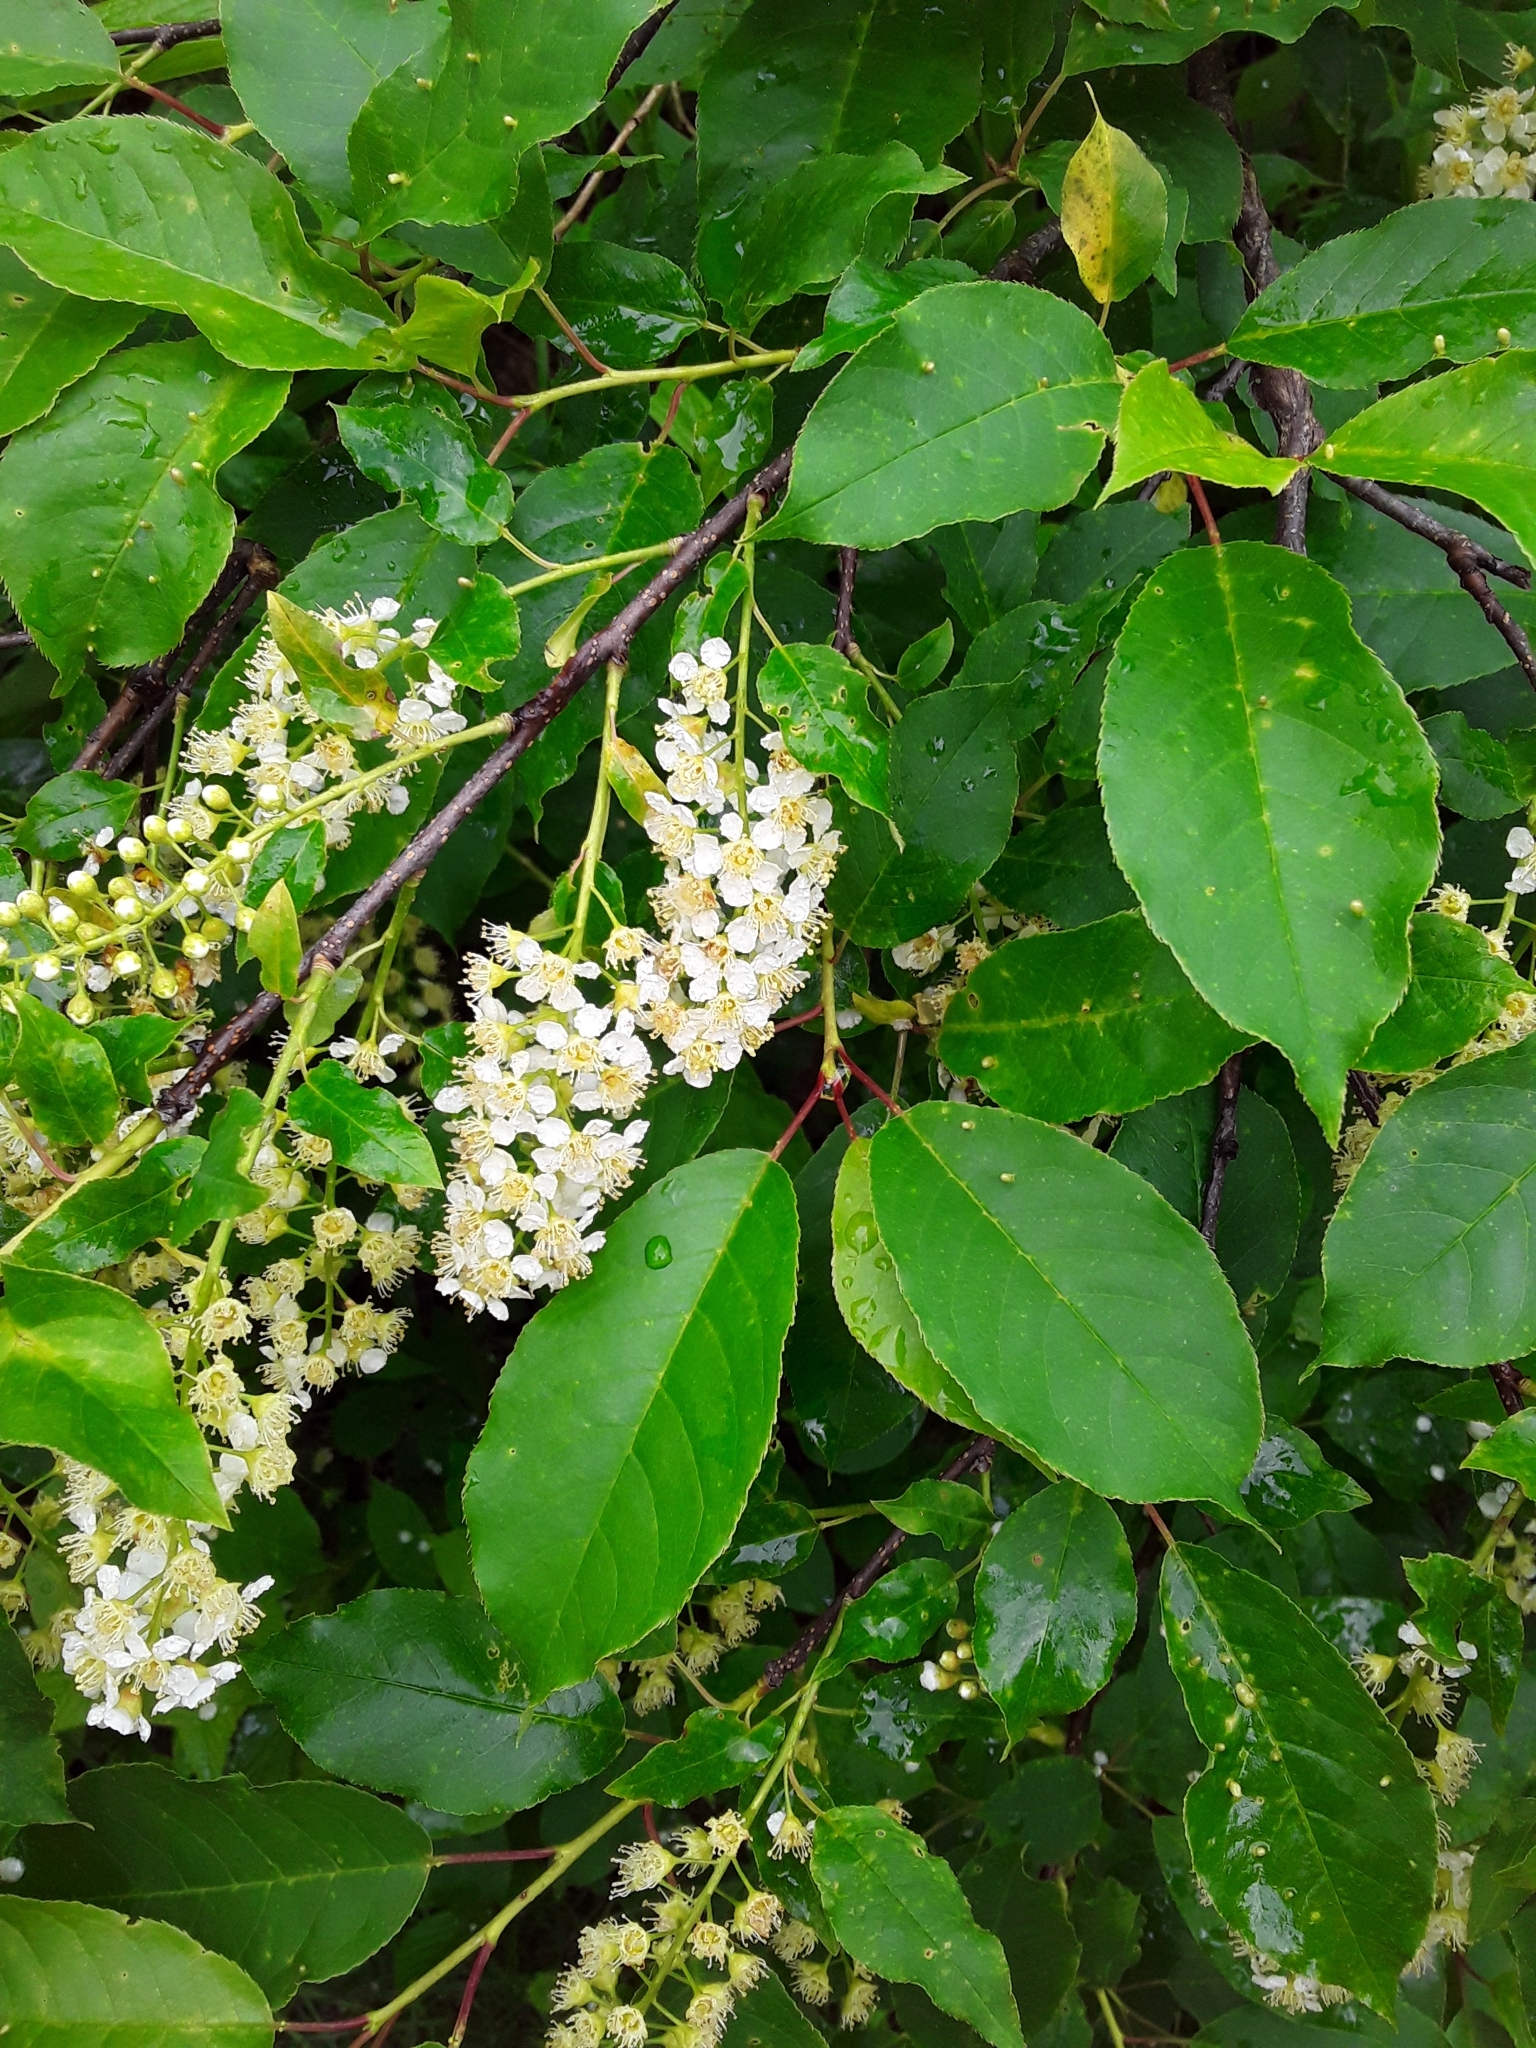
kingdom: Plantae
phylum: Tracheophyta
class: Magnoliopsida
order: Rosales
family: Rosaceae
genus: Prunus
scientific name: Prunus virginiana
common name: Chokecherry
